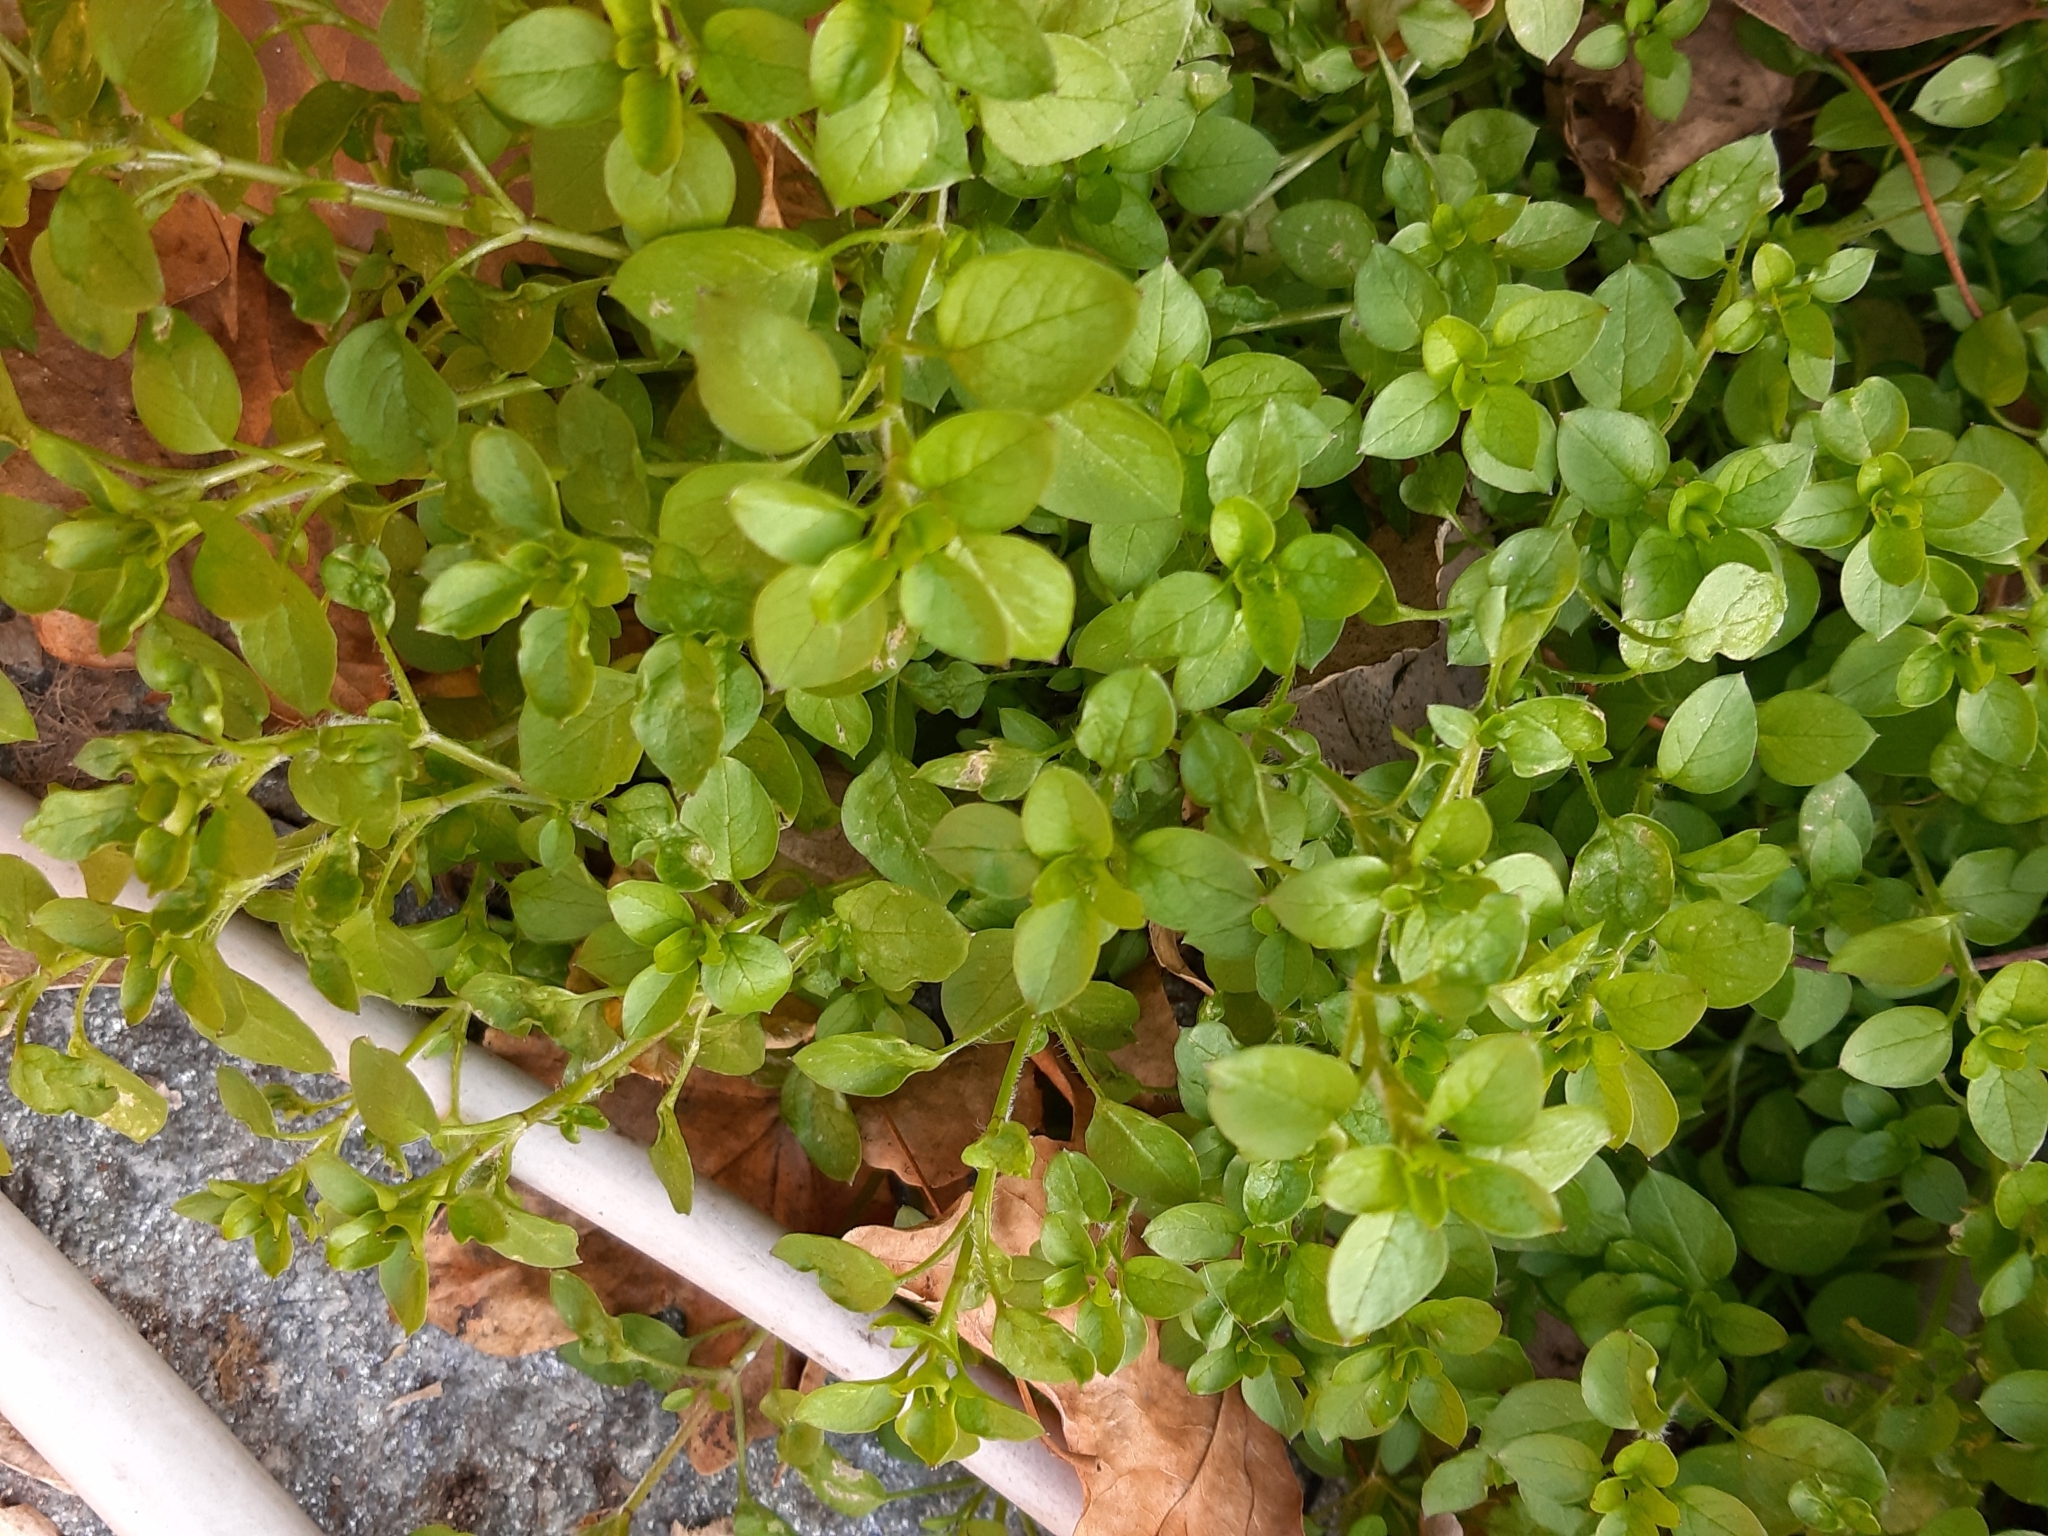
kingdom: Plantae
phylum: Tracheophyta
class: Magnoliopsida
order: Caryophyllales
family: Caryophyllaceae
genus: Stellaria
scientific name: Stellaria media
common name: Common chickweed
